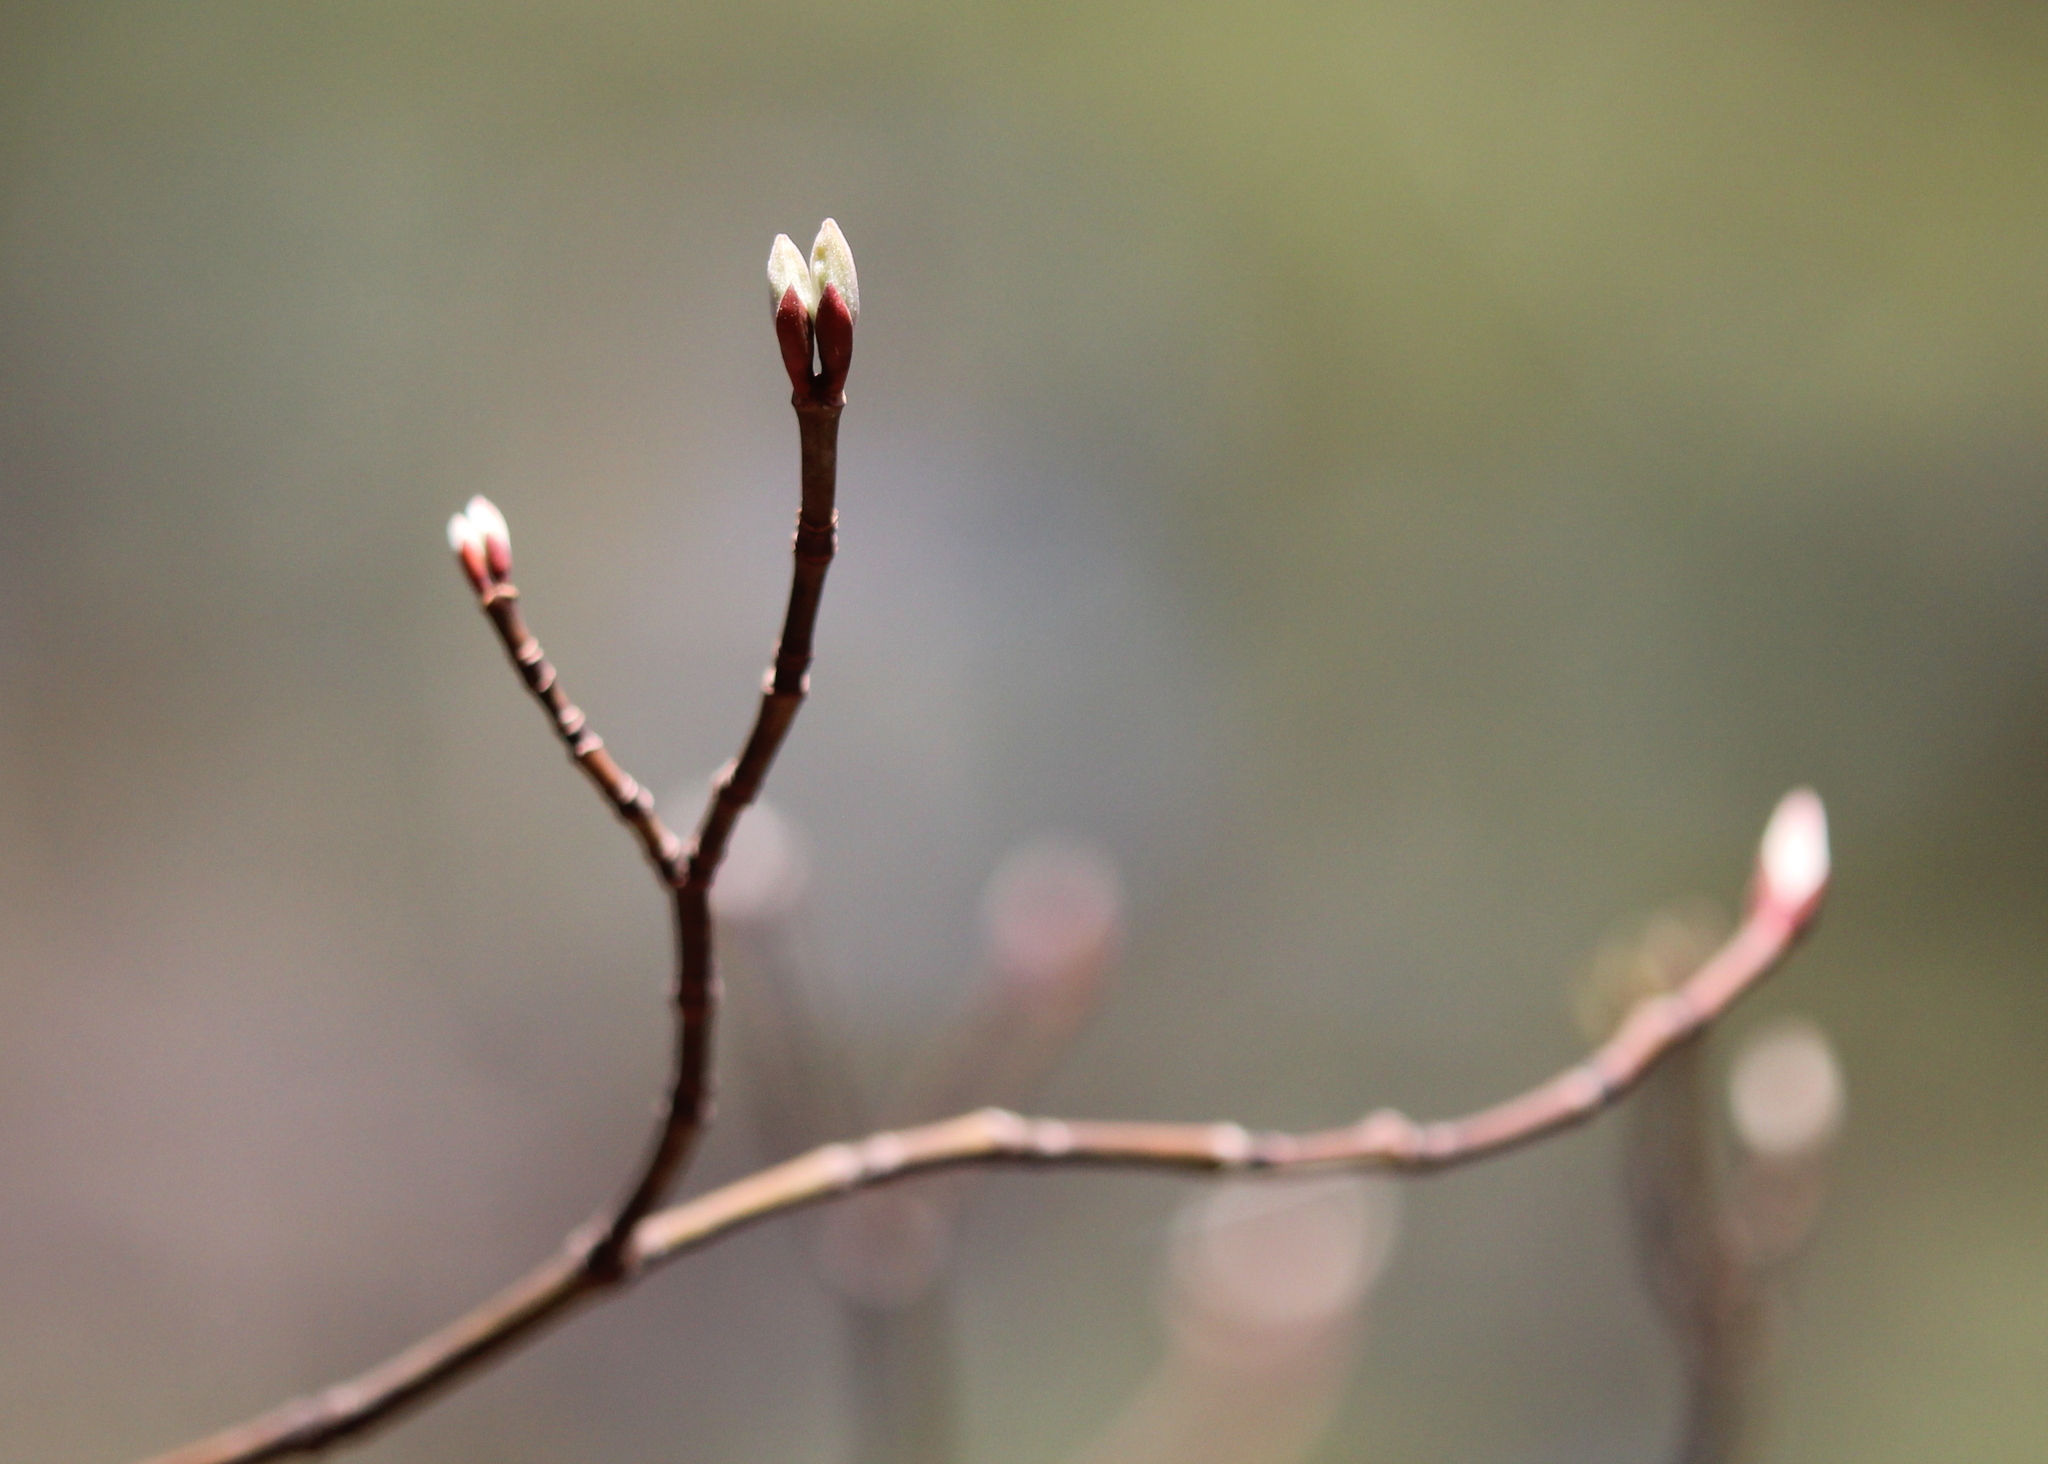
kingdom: Plantae
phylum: Tracheophyta
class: Magnoliopsida
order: Sapindales
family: Sapindaceae
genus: Acer
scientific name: Acer pensylvanicum
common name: Moosewood
